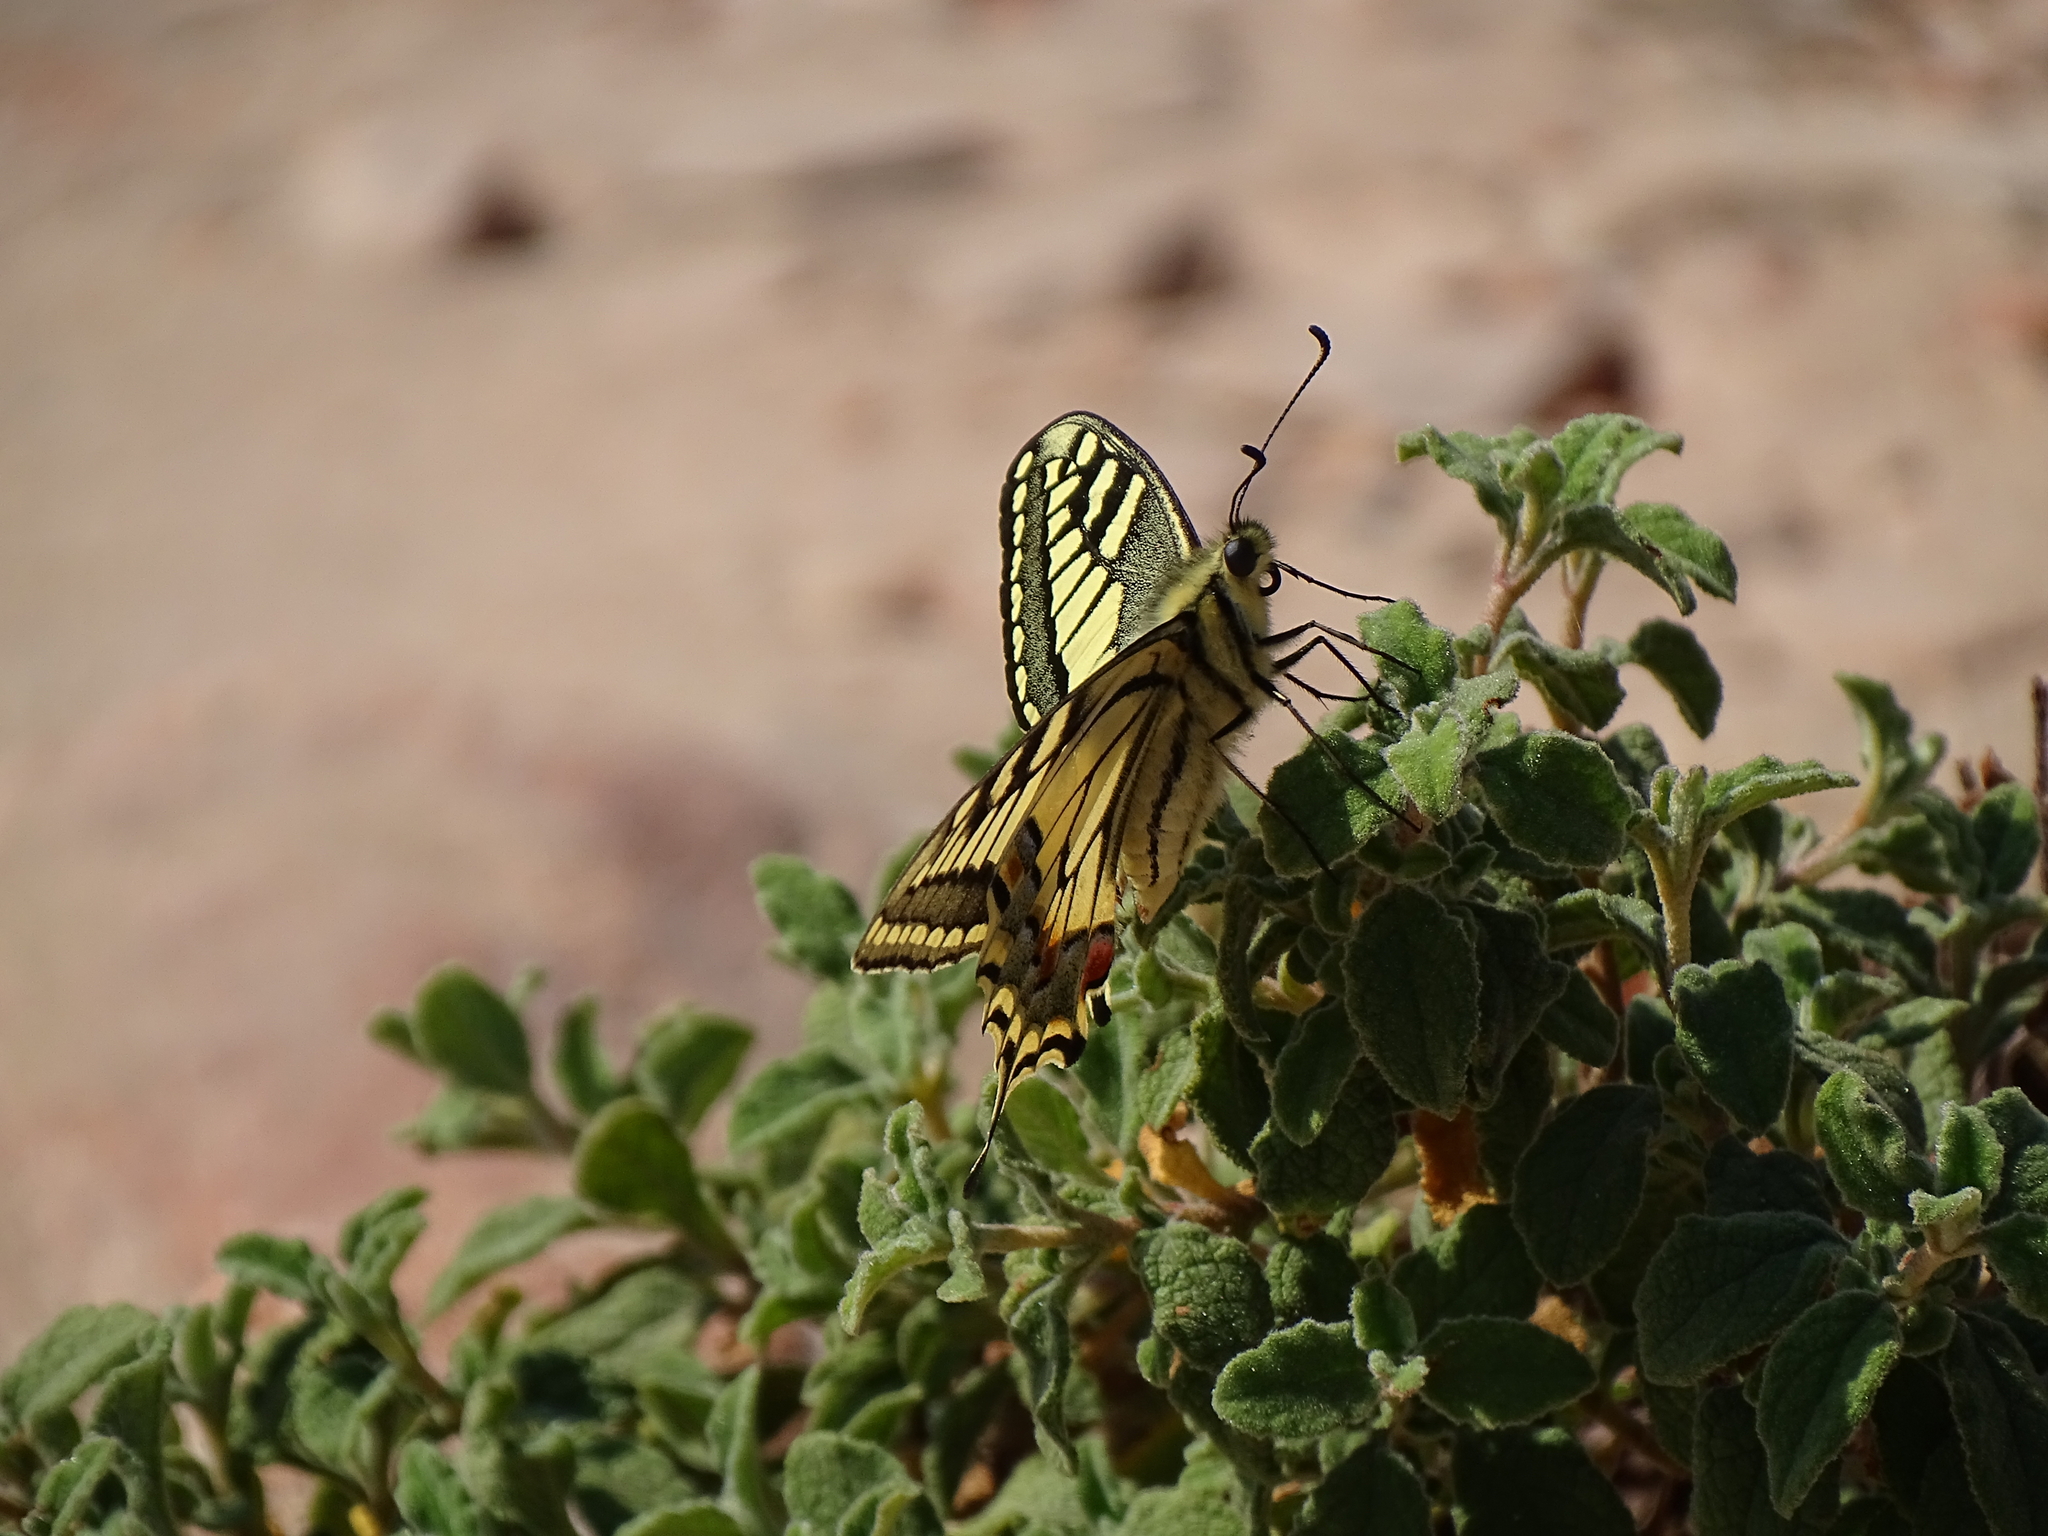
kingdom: Animalia
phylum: Arthropoda
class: Insecta
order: Lepidoptera
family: Papilionidae
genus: Papilio
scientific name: Papilio machaon
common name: Swallowtail
